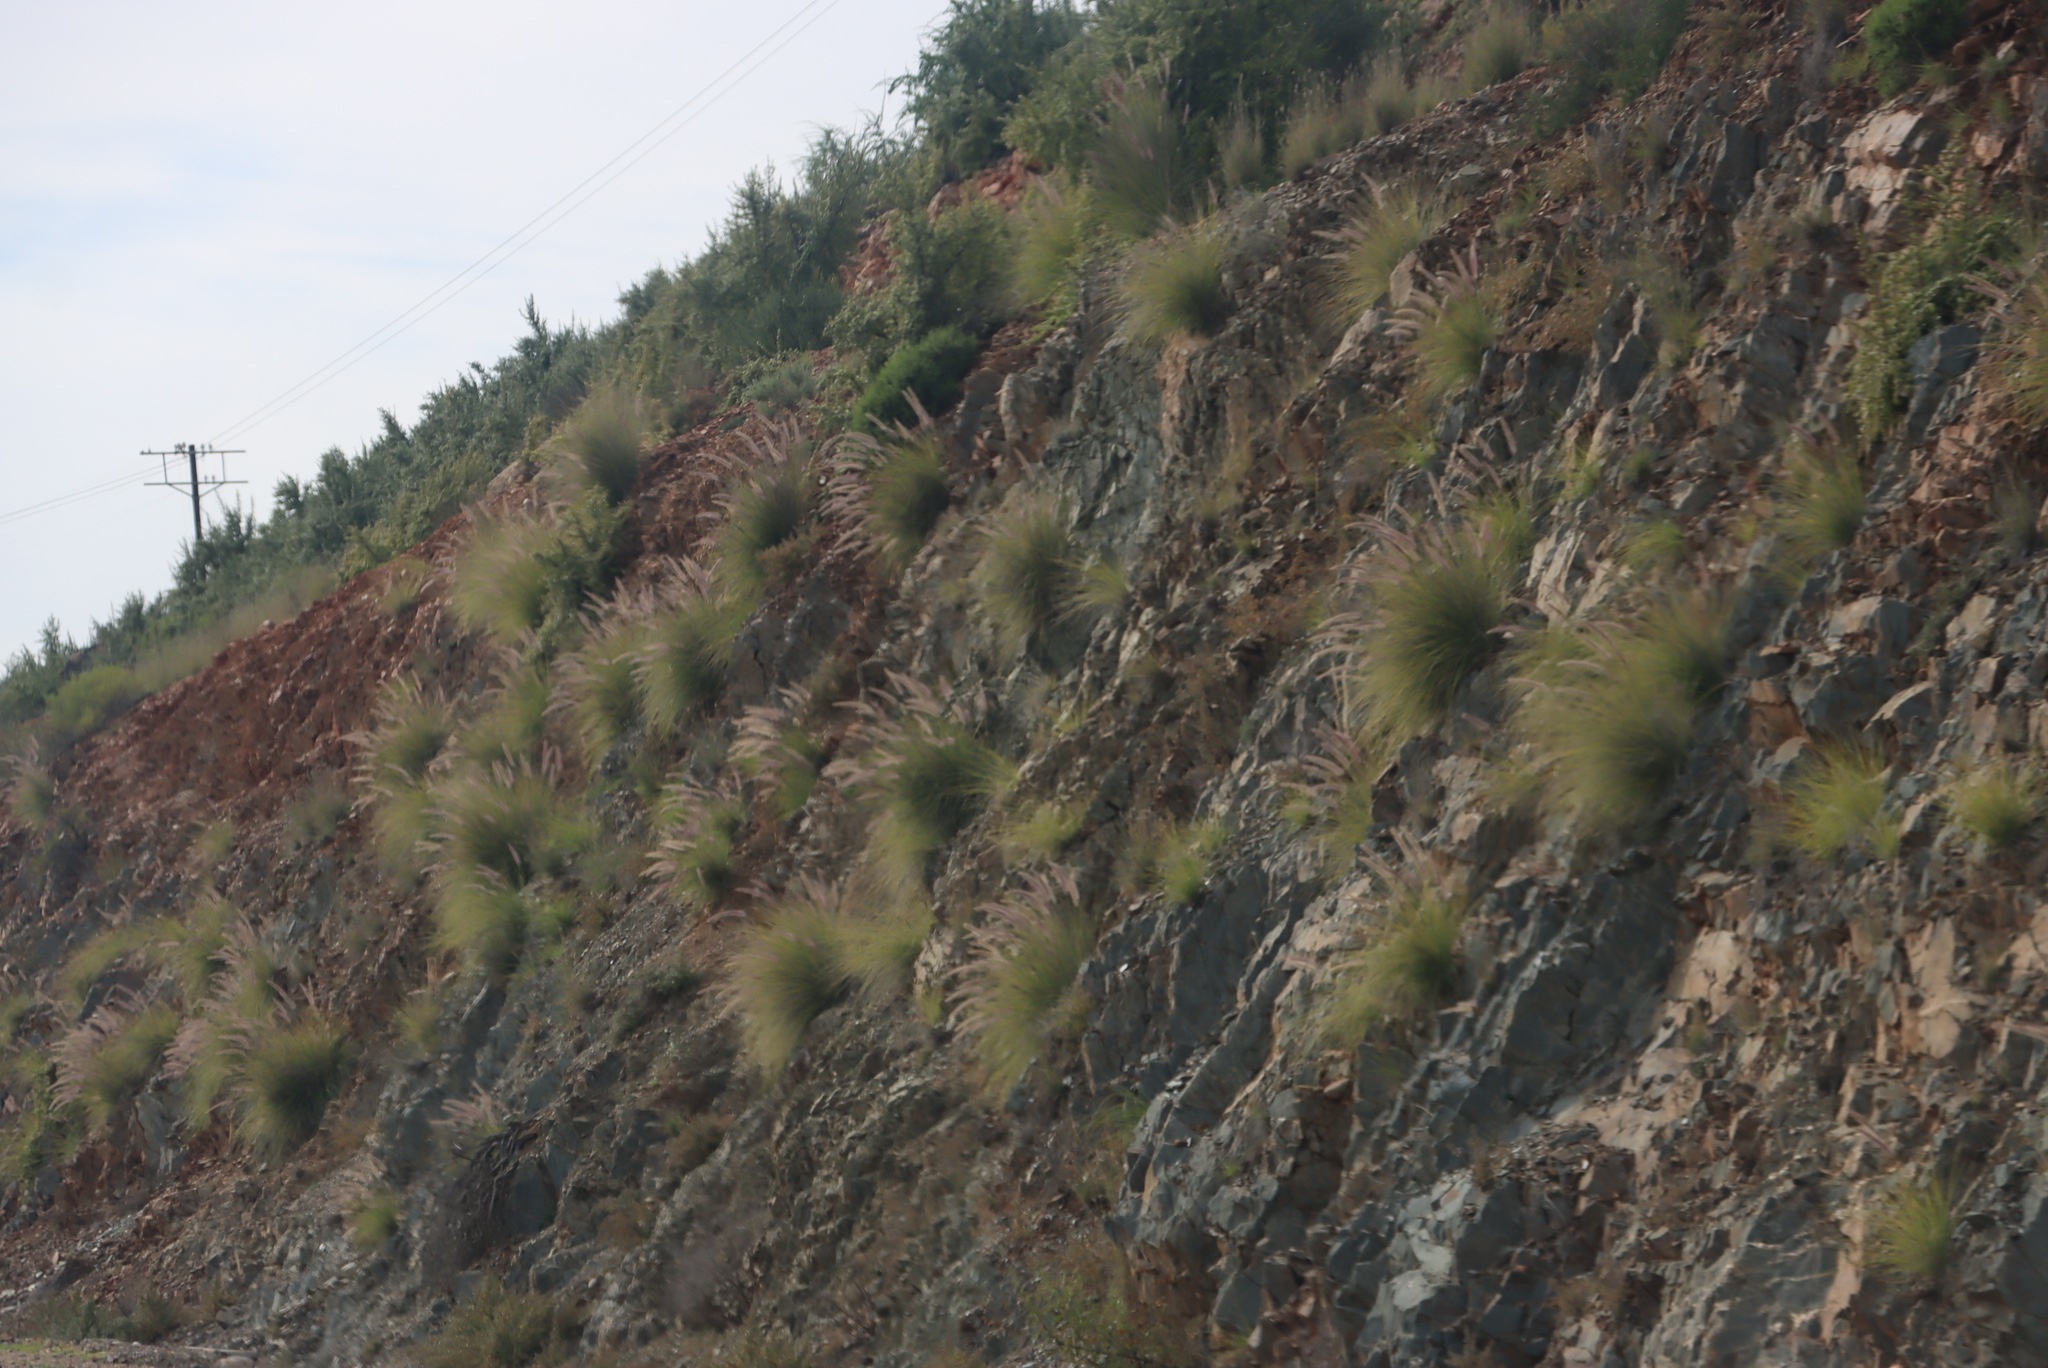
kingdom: Plantae
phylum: Tracheophyta
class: Liliopsida
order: Poales
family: Poaceae
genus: Cenchrus
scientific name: Cenchrus setaceus
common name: Crimson fountaingrass
